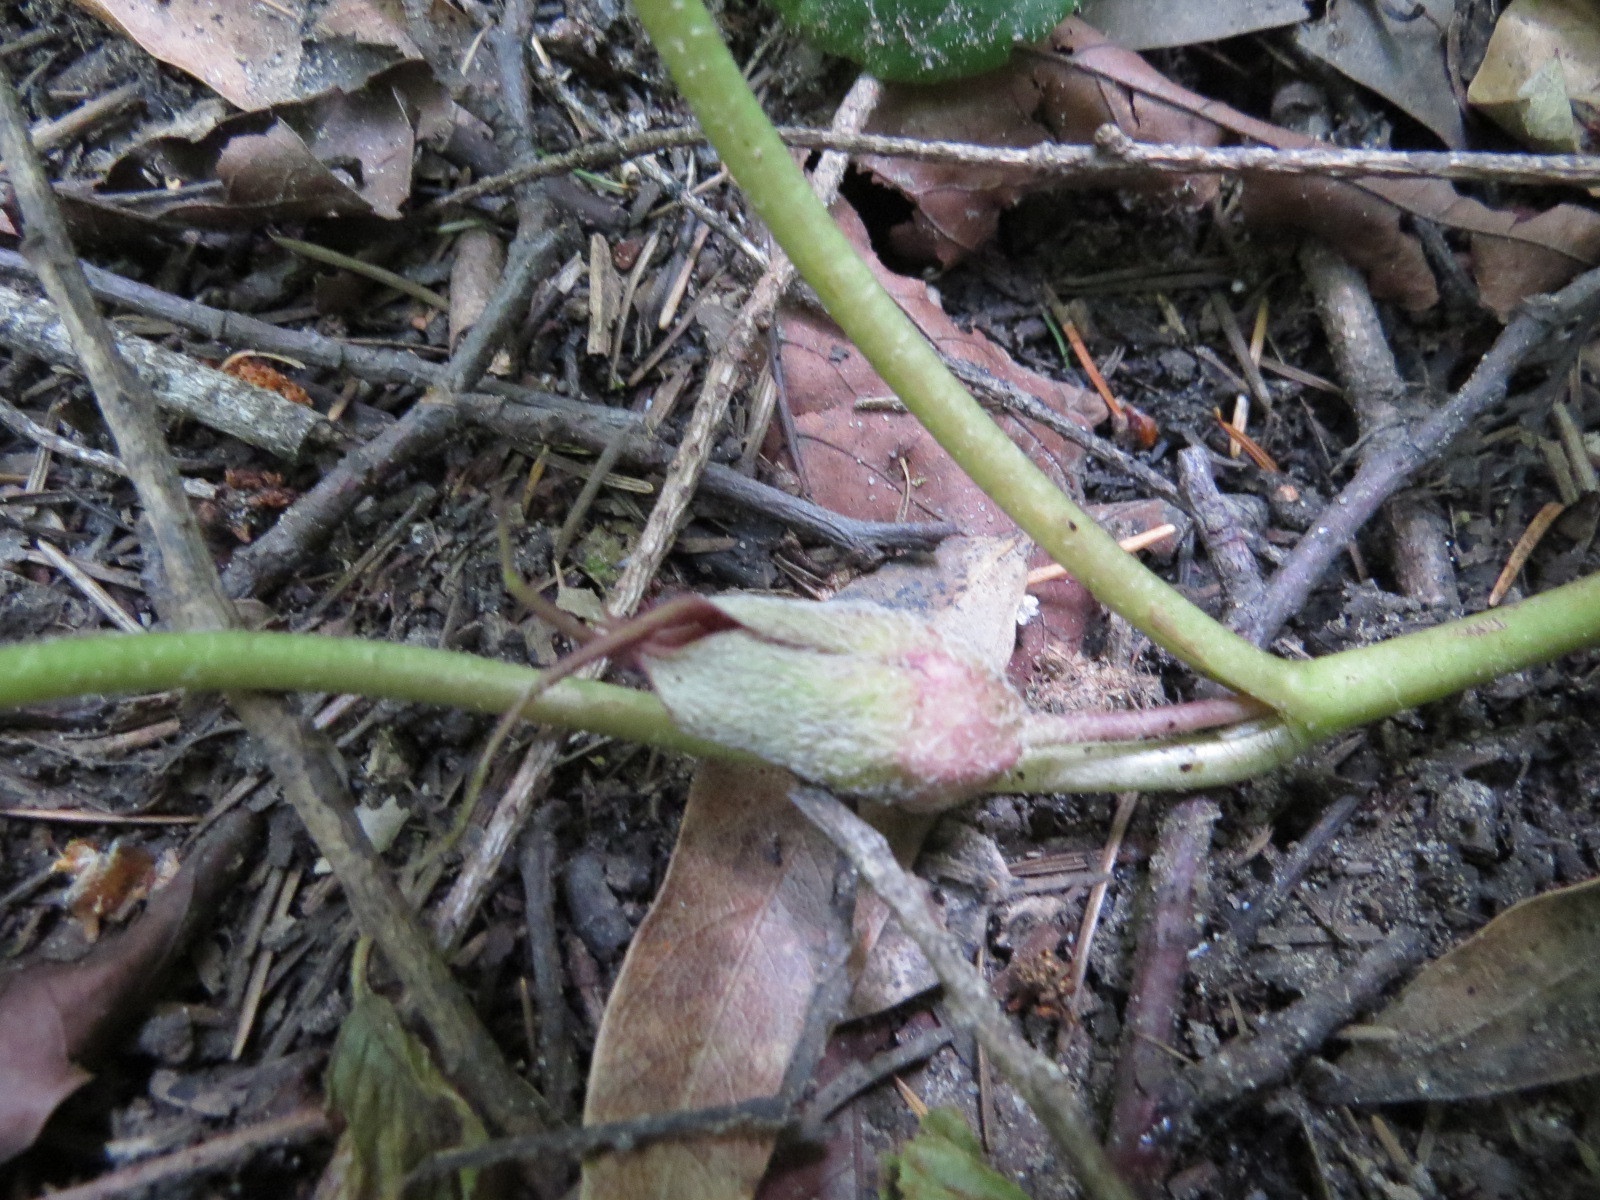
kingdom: Plantae
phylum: Tracheophyta
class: Magnoliopsida
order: Piperales
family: Aristolochiaceae
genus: Asarum
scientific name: Asarum caudatum
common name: Wild ginger
